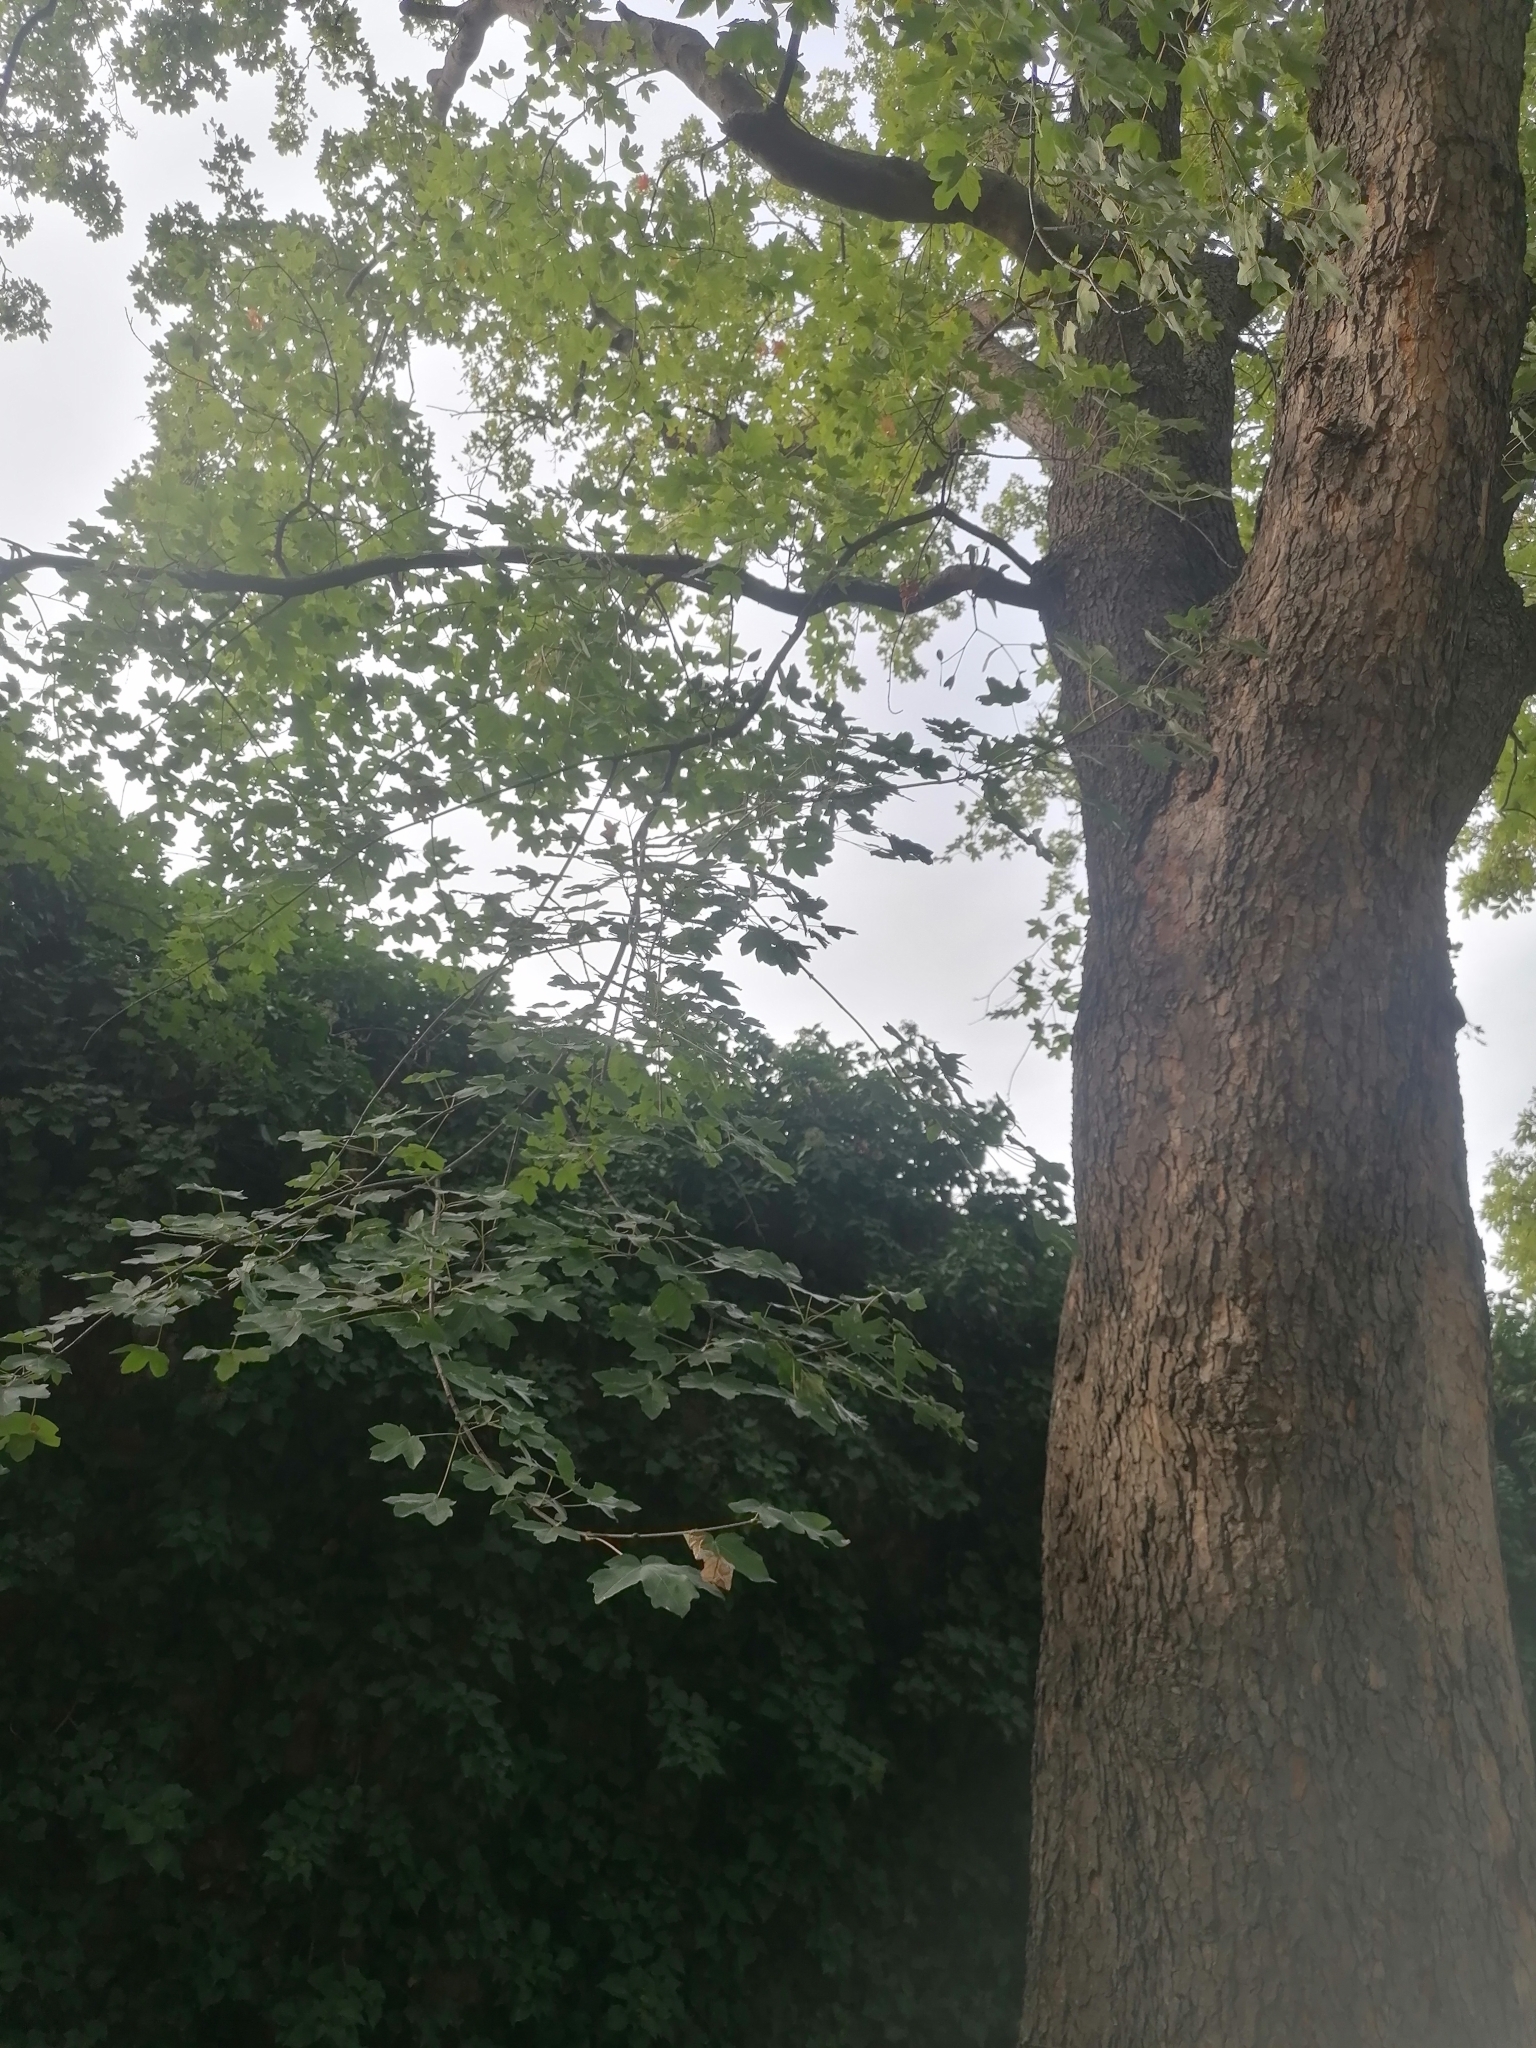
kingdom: Animalia
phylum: Arthropoda
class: Insecta
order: Hymenoptera
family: Tenthredinidae
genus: Heterarthrus
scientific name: Heterarthrus leucomela
